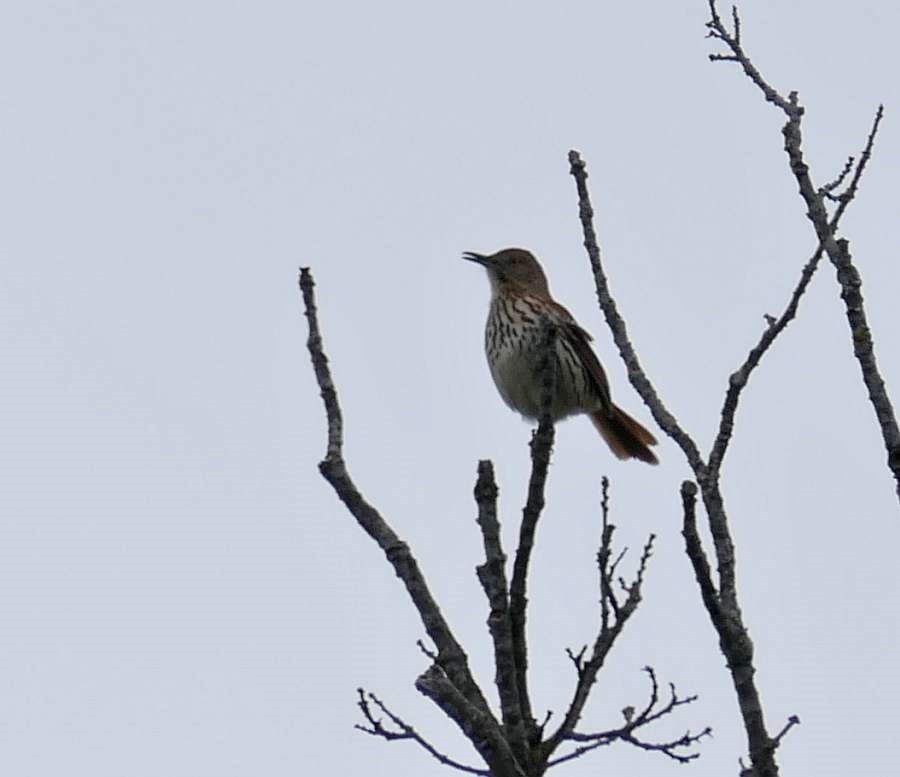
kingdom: Animalia
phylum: Chordata
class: Aves
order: Passeriformes
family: Mimidae
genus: Toxostoma
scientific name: Toxostoma rufum
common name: Brown thrasher
